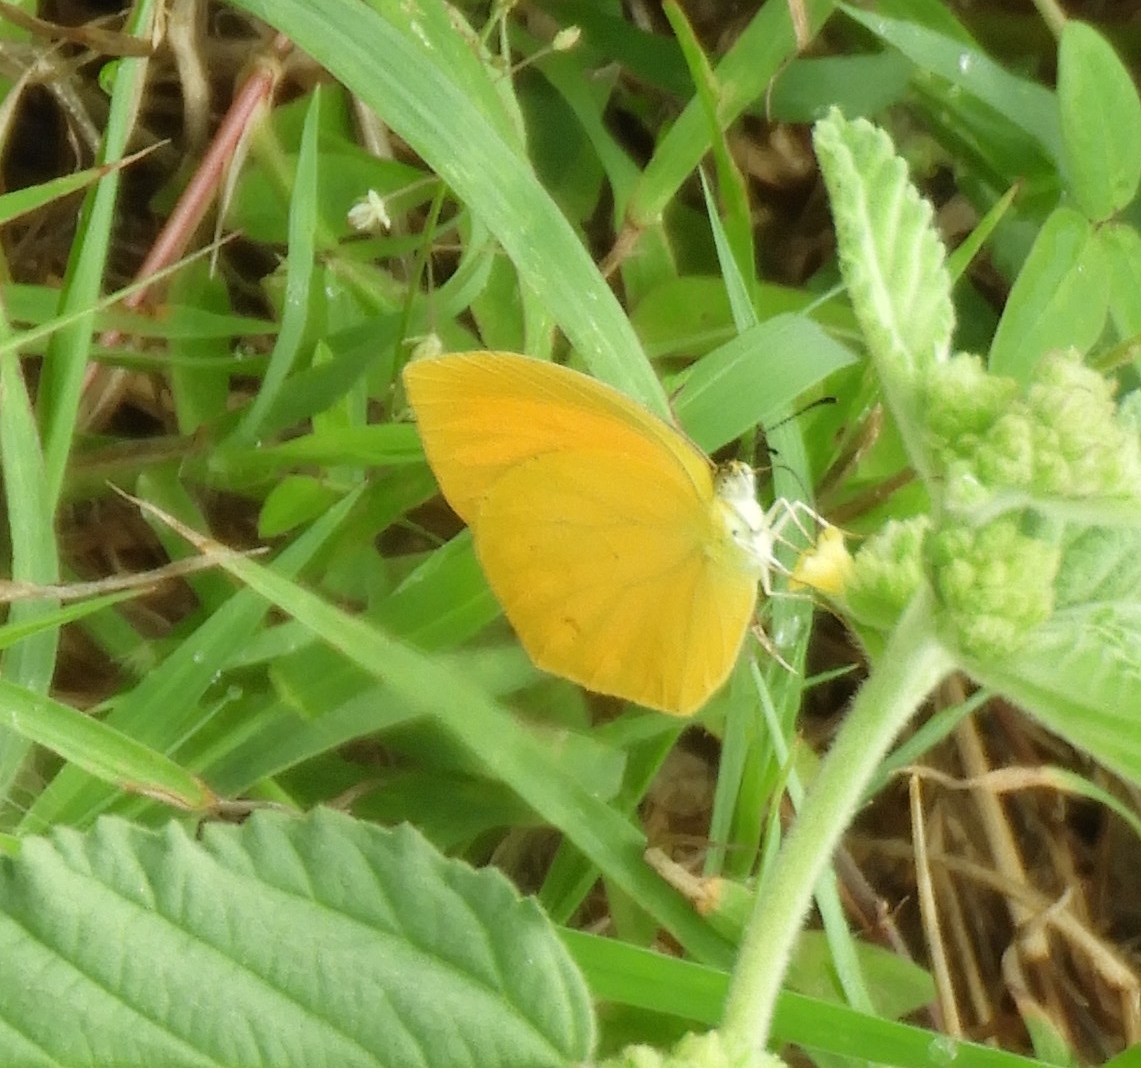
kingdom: Animalia
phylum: Arthropoda
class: Insecta
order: Lepidoptera
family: Pieridae
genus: Pyrisitia
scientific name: Pyrisitia proterpia
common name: Tailed orange
